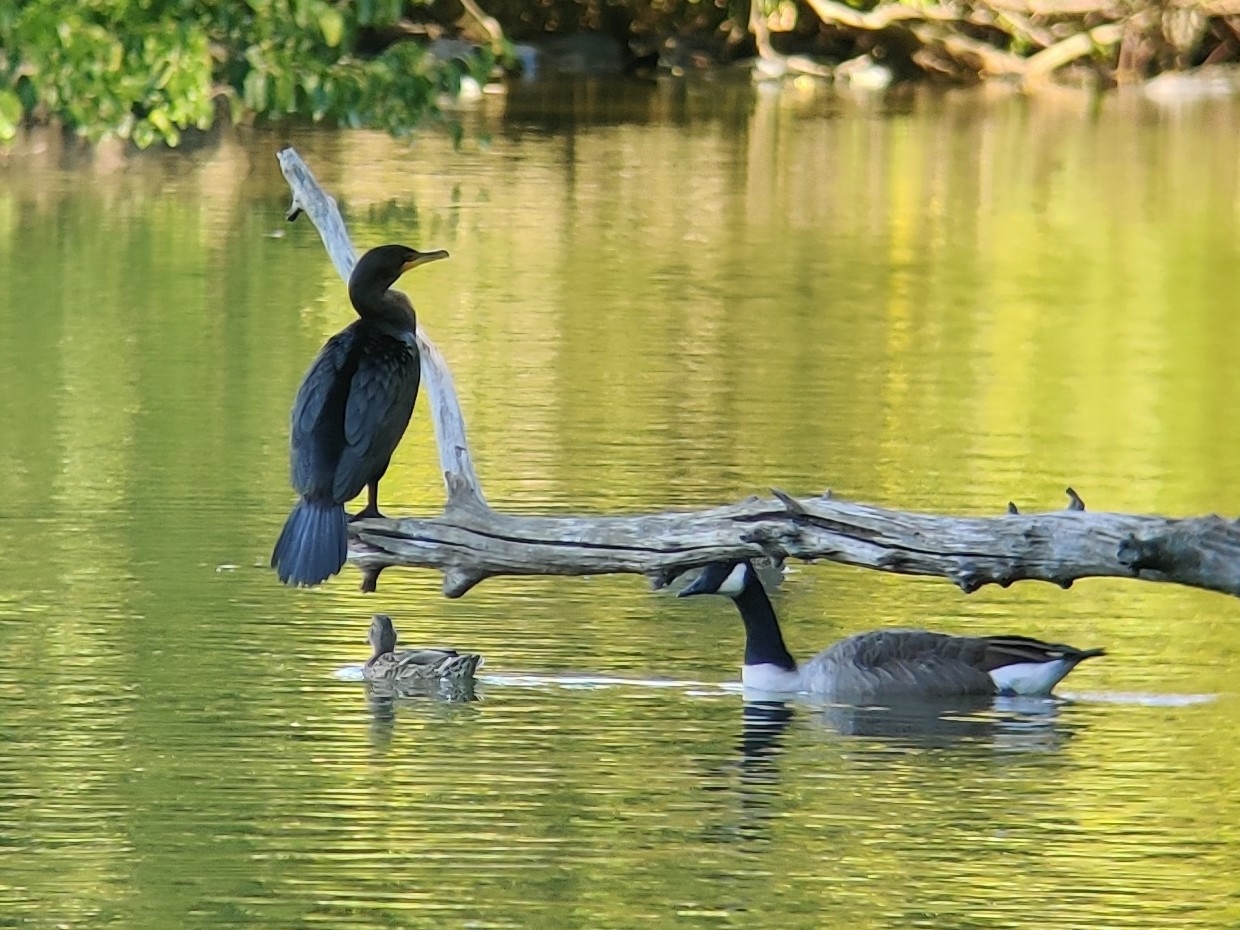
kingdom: Animalia
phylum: Chordata
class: Aves
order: Suliformes
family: Phalacrocoracidae
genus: Phalacrocorax
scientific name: Phalacrocorax auritus
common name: Double-crested cormorant
